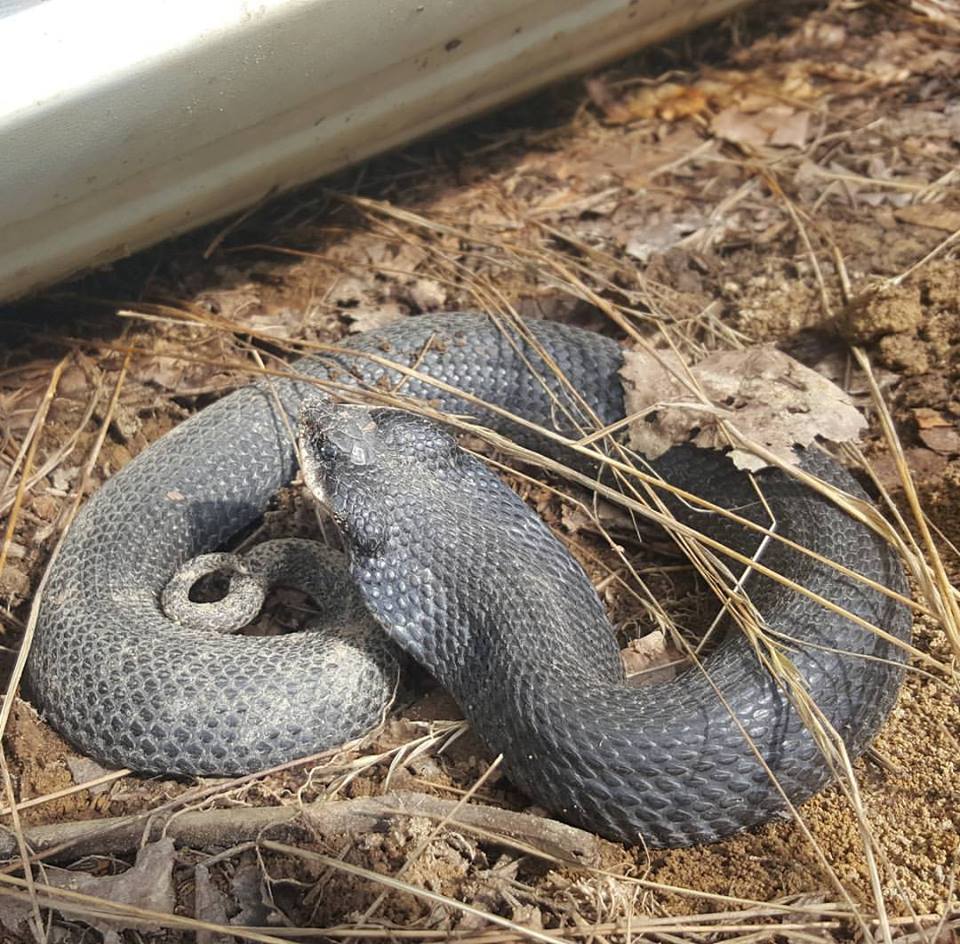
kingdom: Animalia
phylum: Chordata
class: Squamata
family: Colubridae
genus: Heterodon
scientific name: Heterodon platirhinos
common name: Eastern hognose snake
